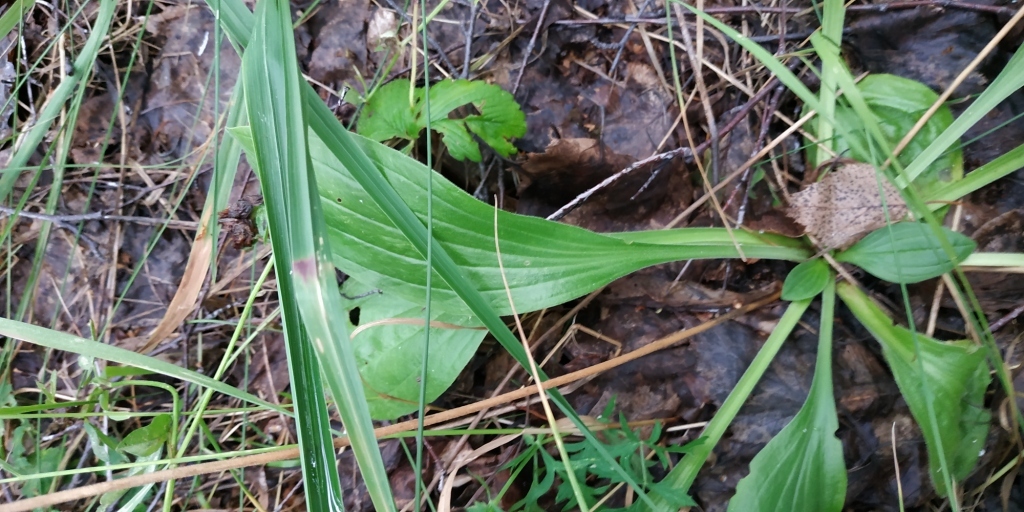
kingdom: Plantae
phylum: Tracheophyta
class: Magnoliopsida
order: Lamiales
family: Plantaginaceae
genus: Plantago
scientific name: Plantago urvillei
